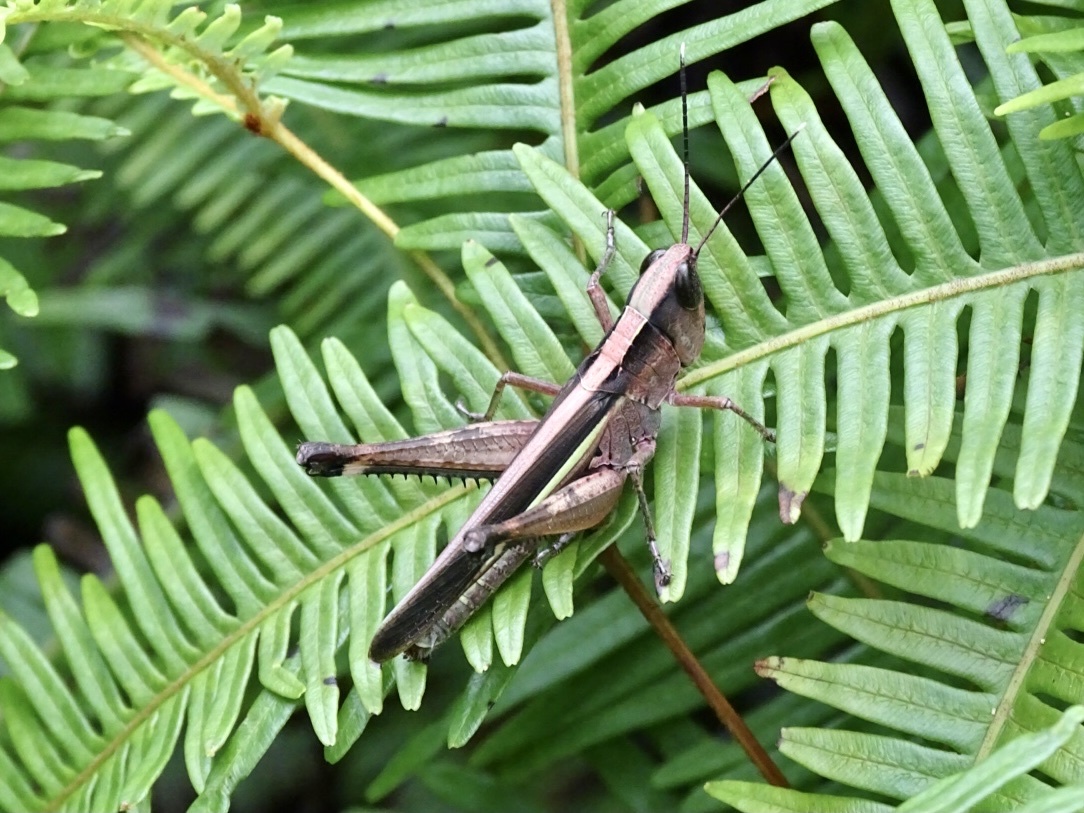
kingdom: Animalia
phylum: Arthropoda
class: Insecta
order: Orthoptera
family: Acrididae
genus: Ceracris
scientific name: Ceracris fasciata
